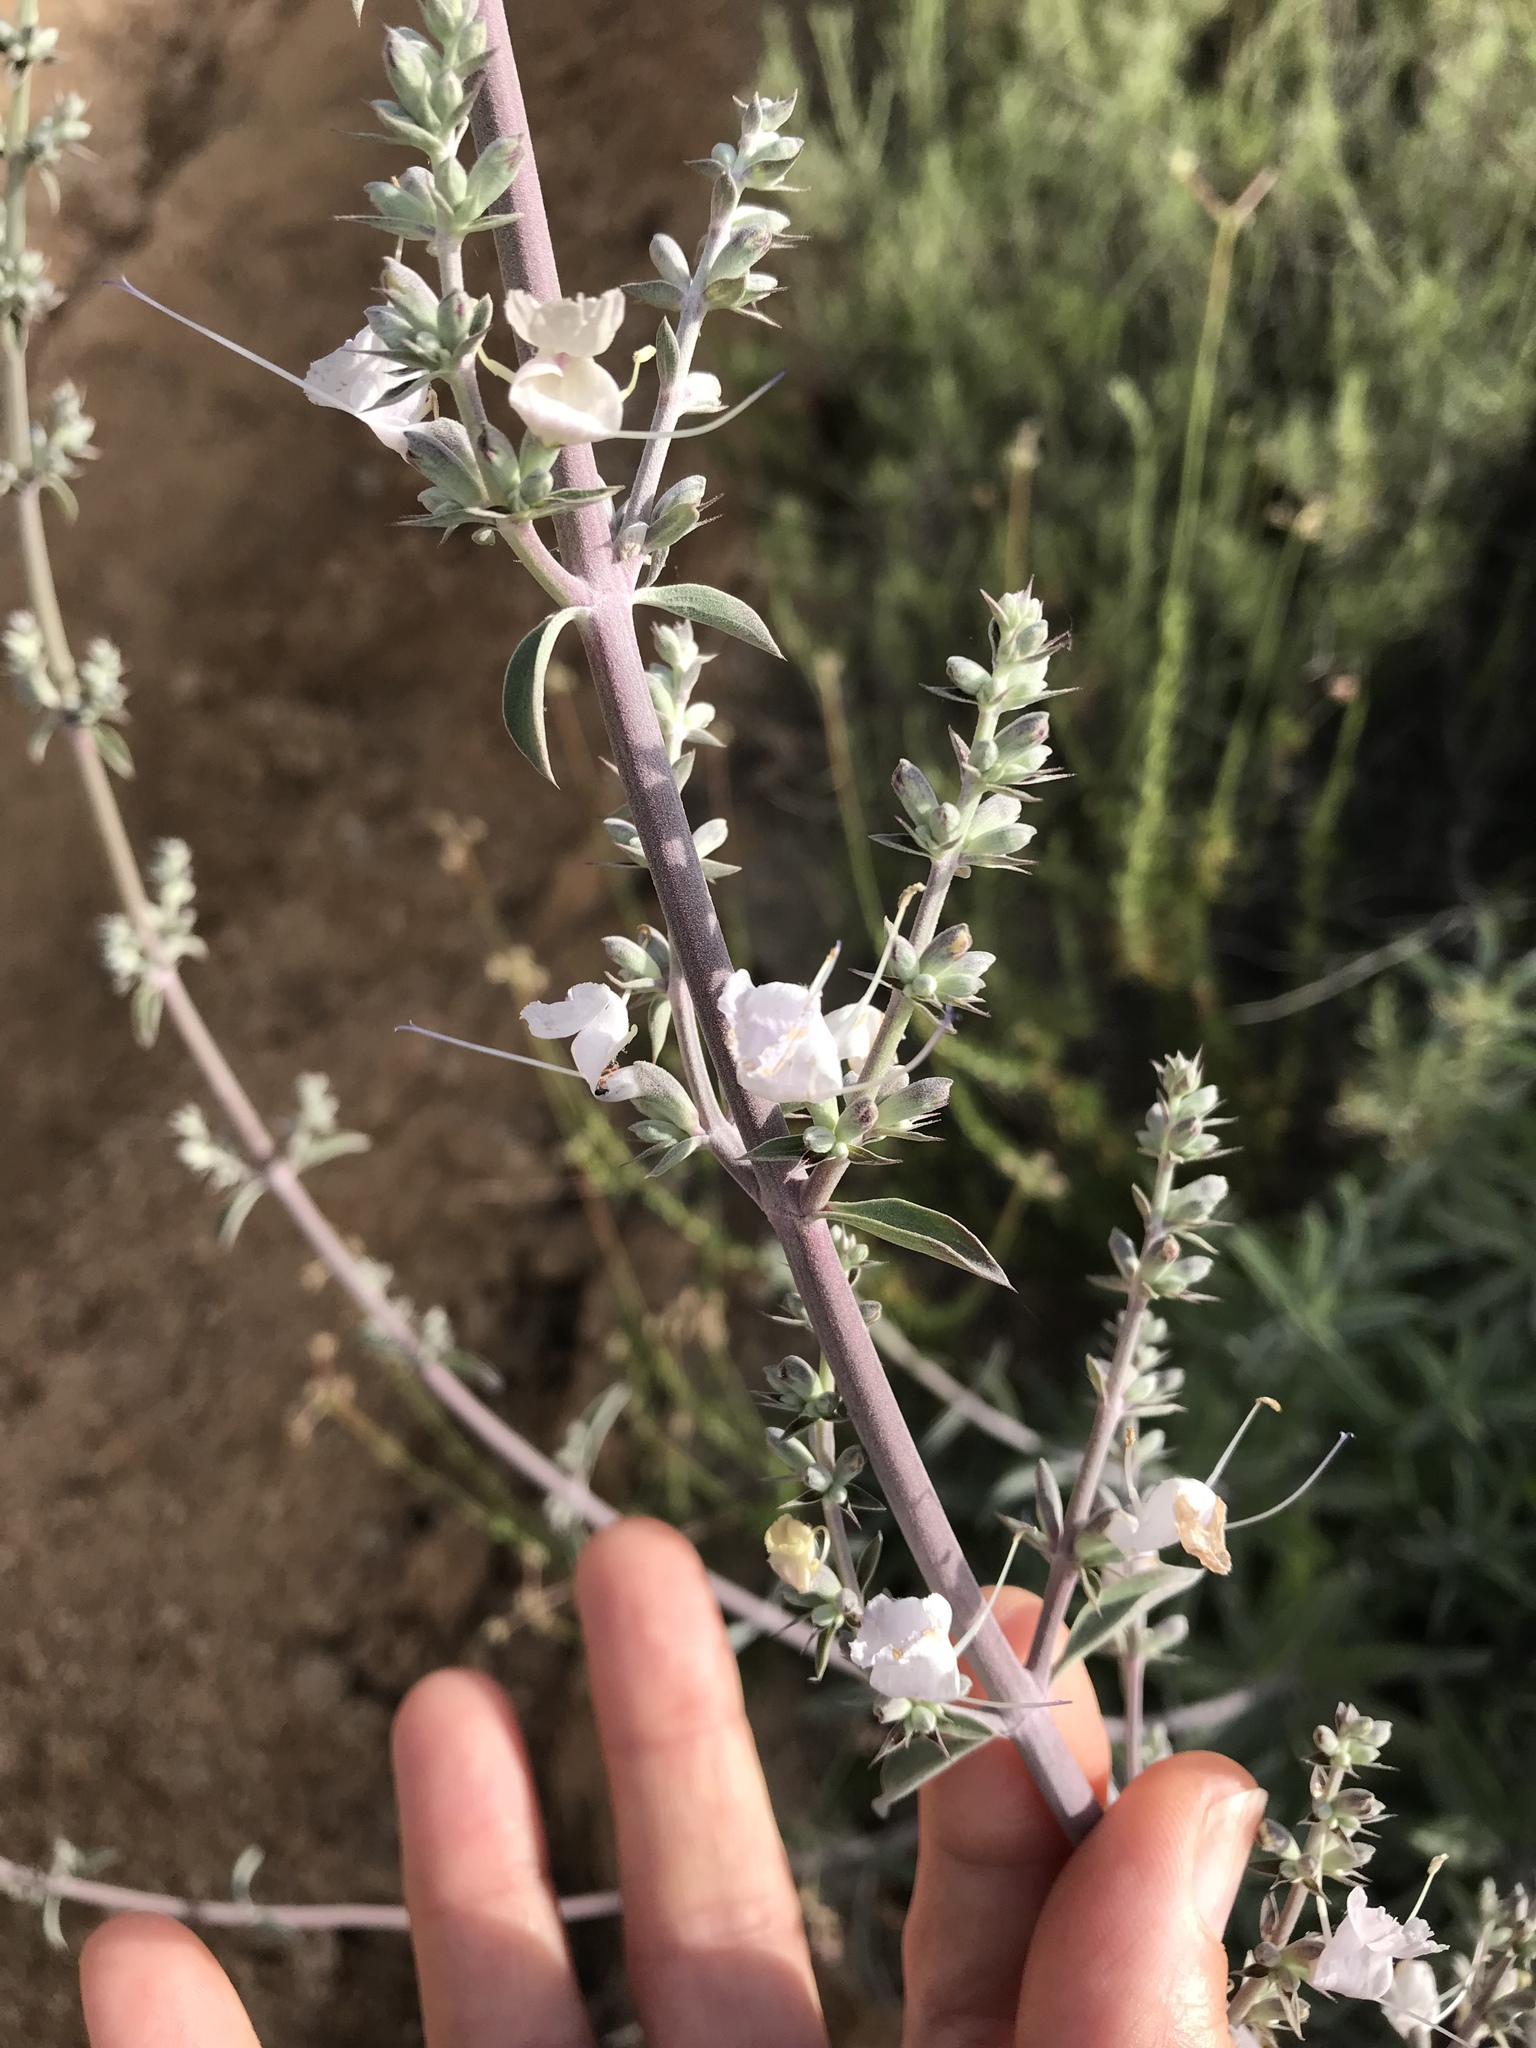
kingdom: Plantae
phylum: Tracheophyta
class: Magnoliopsida
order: Lamiales
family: Lamiaceae
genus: Salvia
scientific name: Salvia apiana
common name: White sage
